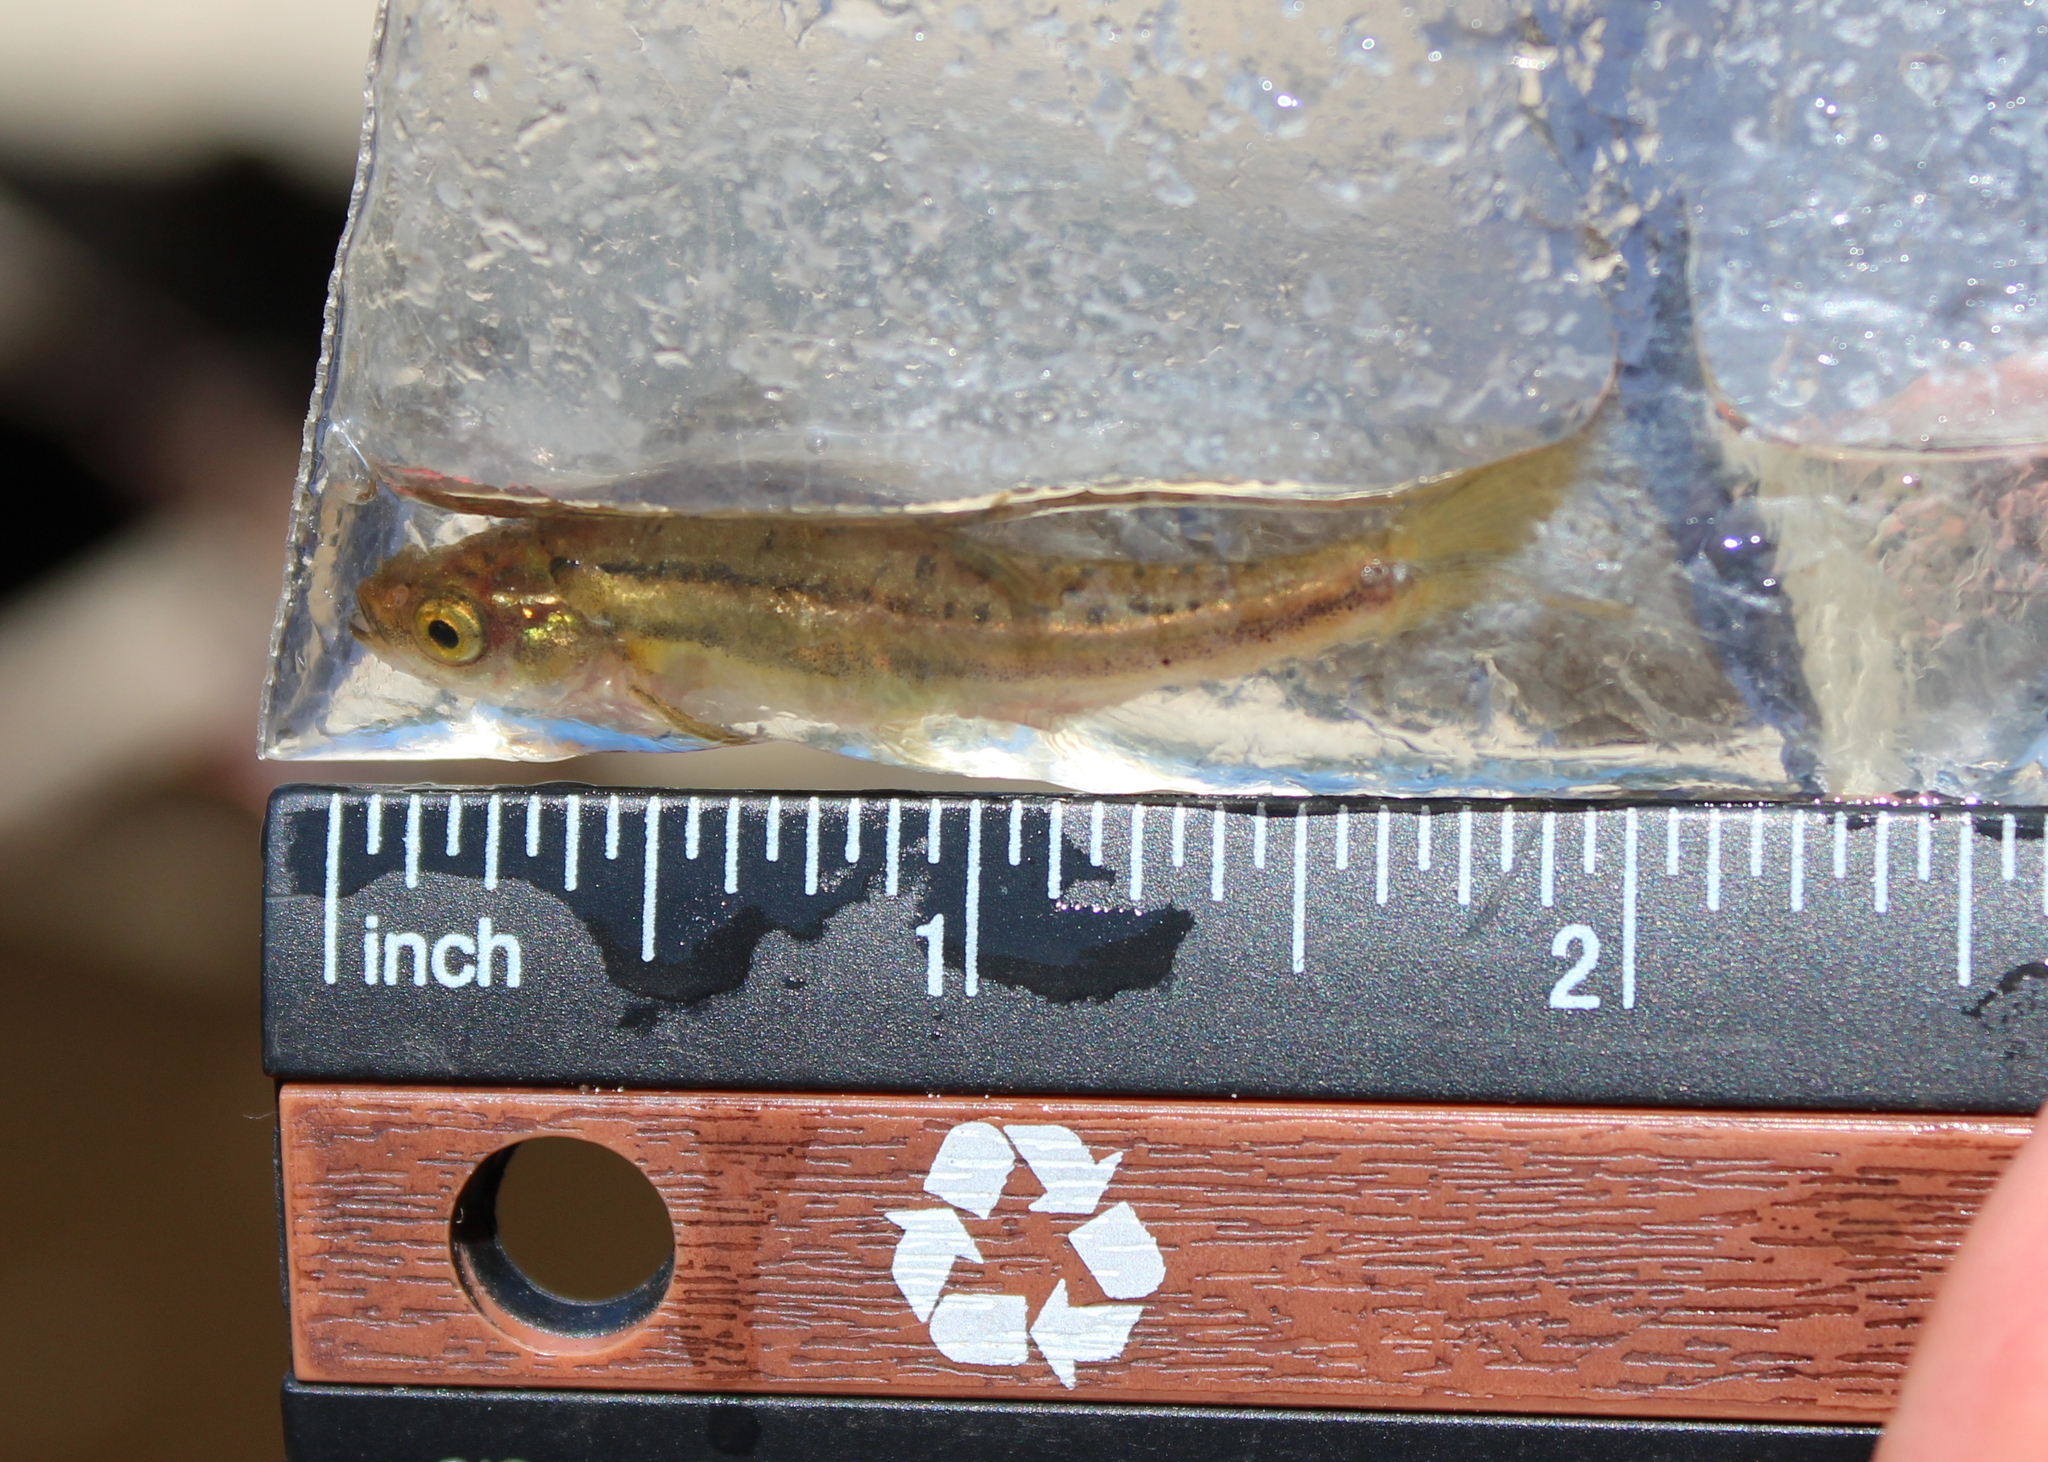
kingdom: Animalia
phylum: Chordata
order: Cypriniformes
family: Cyprinidae
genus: Chrosomus
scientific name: Chrosomus eos
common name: Northern redbelly dace
